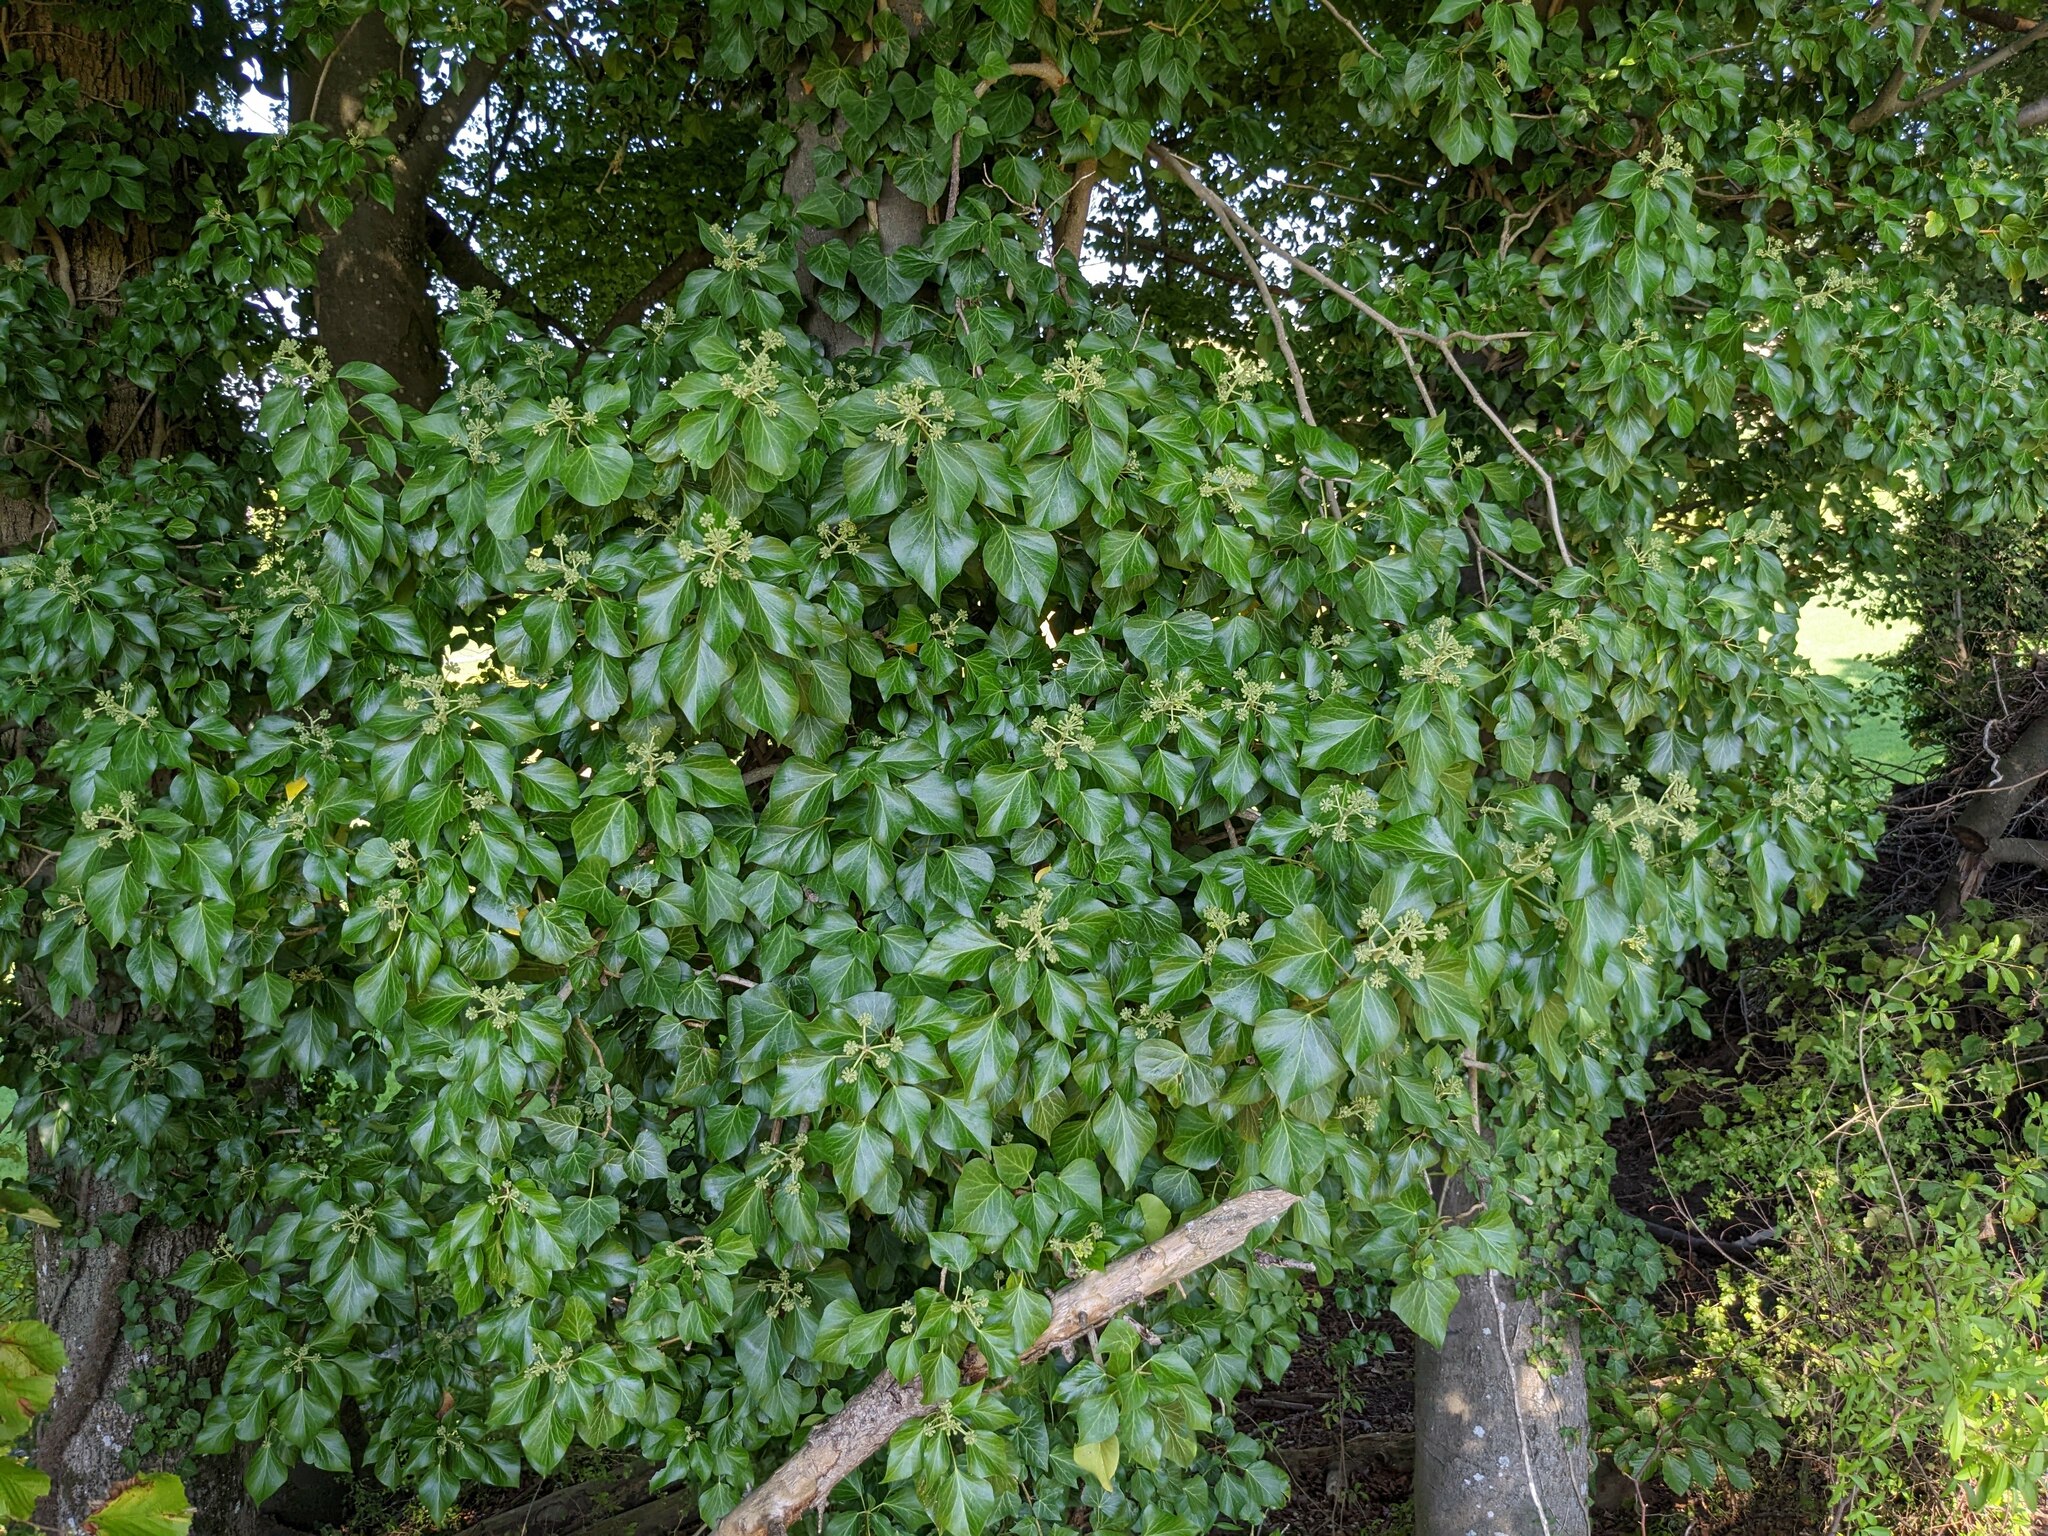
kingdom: Plantae
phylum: Tracheophyta
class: Magnoliopsida
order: Apiales
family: Araliaceae
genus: Hedera
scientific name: Hedera helix
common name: Ivy
